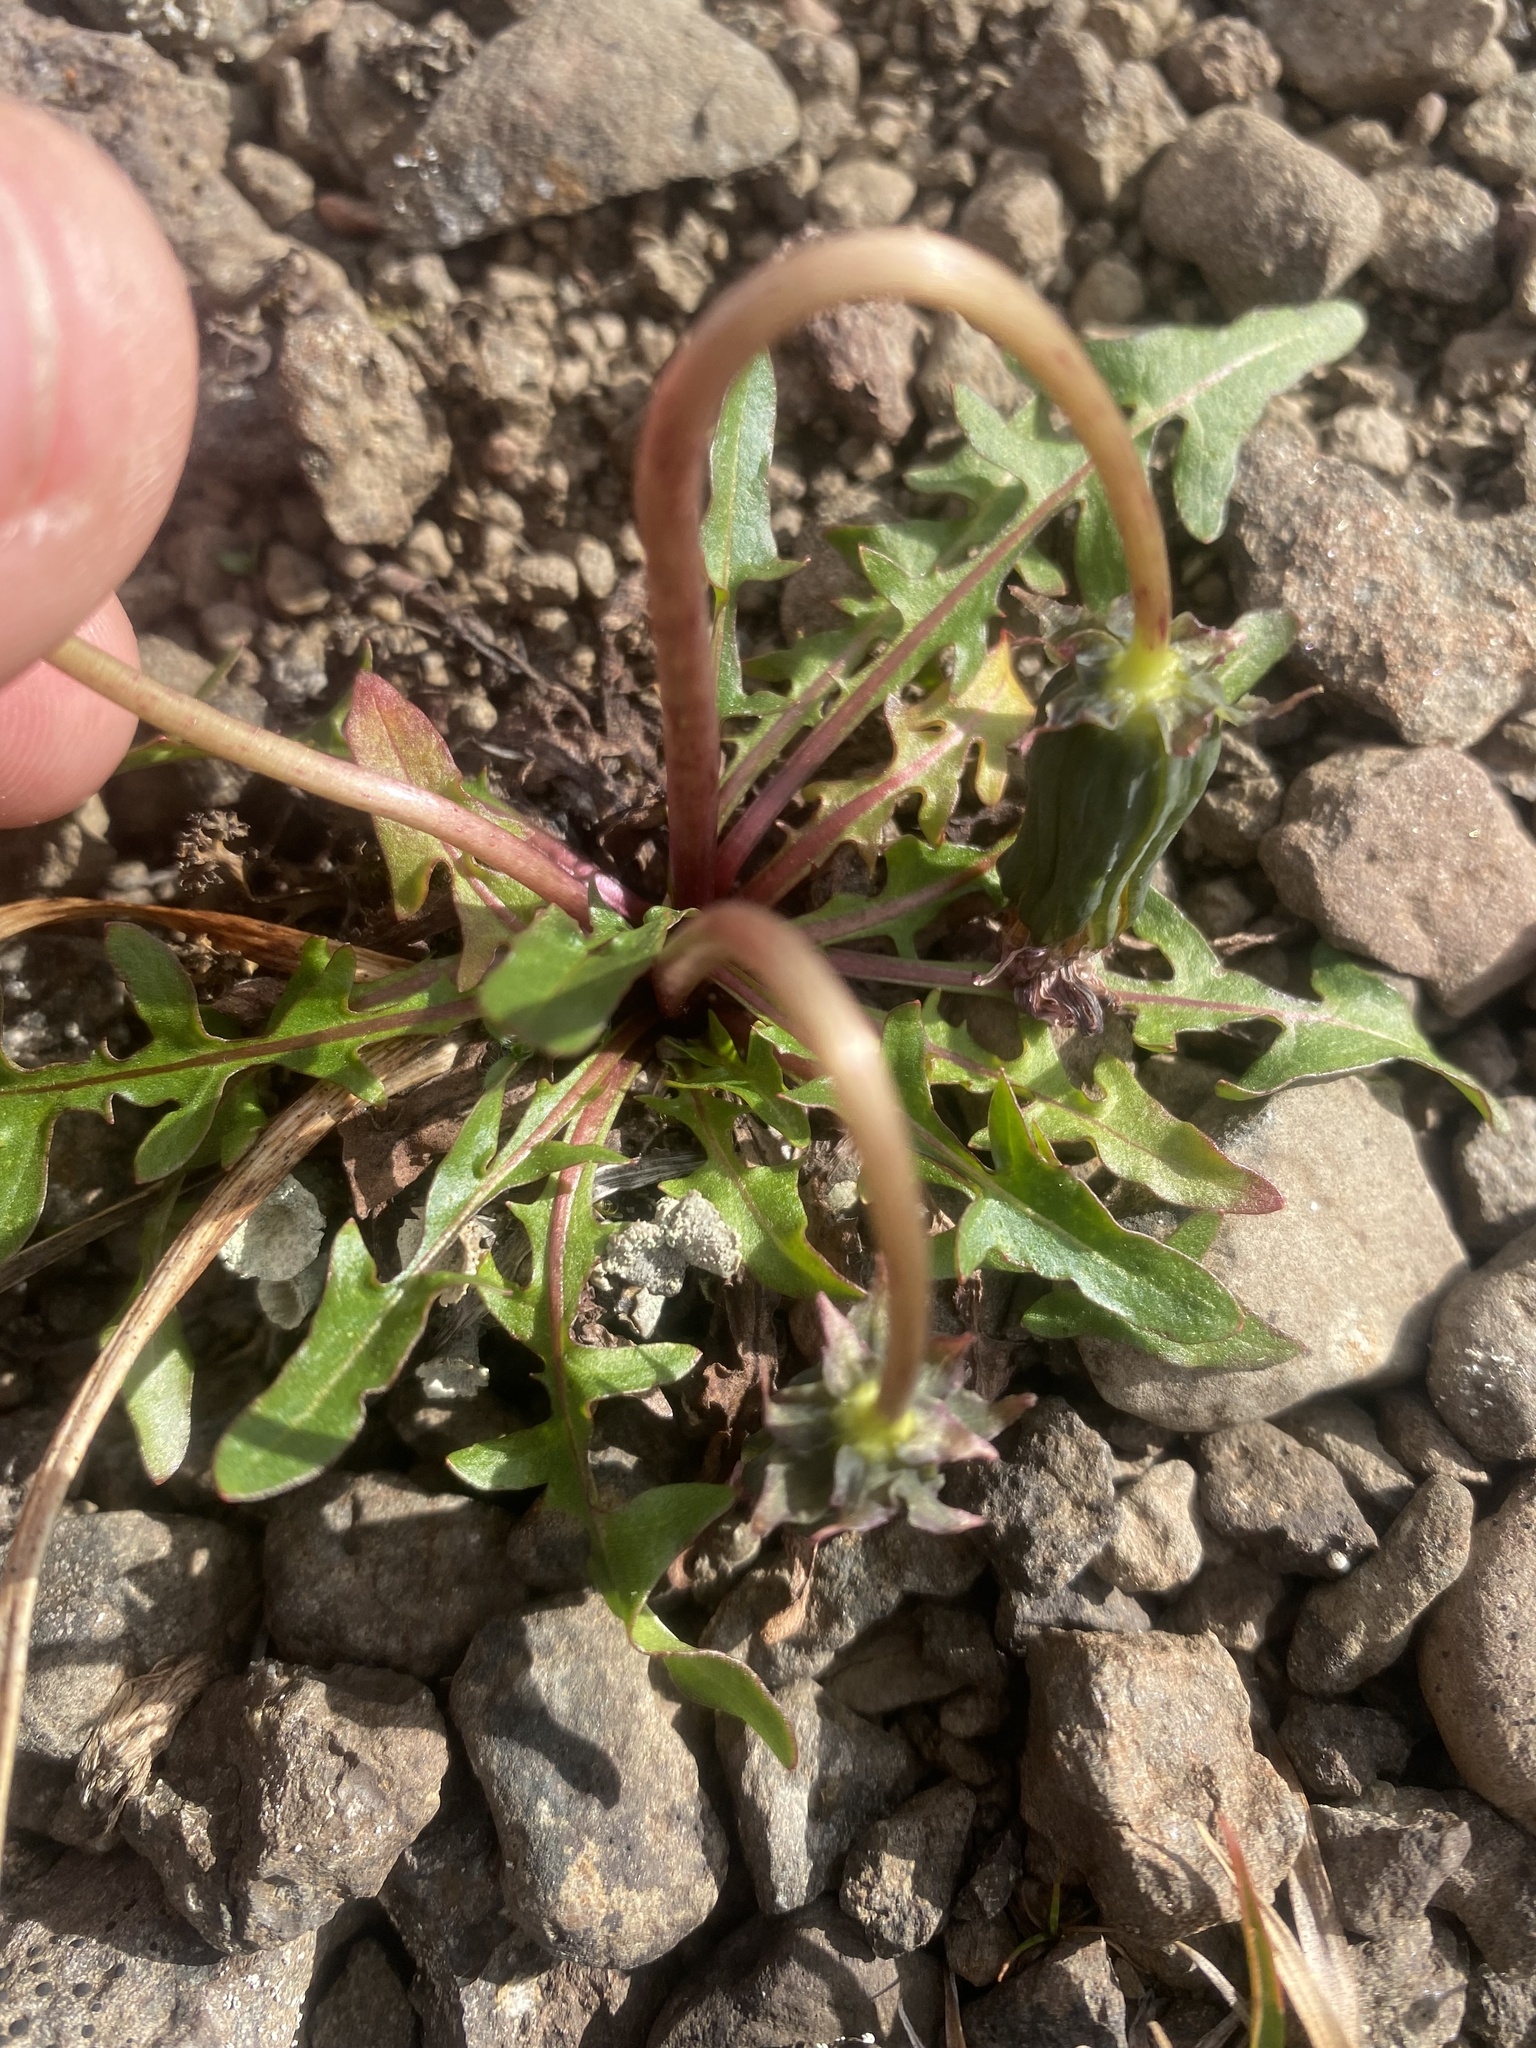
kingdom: Plantae
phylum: Tracheophyta
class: Magnoliopsida
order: Asterales
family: Asteraceae
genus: Taraxacum
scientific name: Taraxacum arcticum
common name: Arctic dandelion
